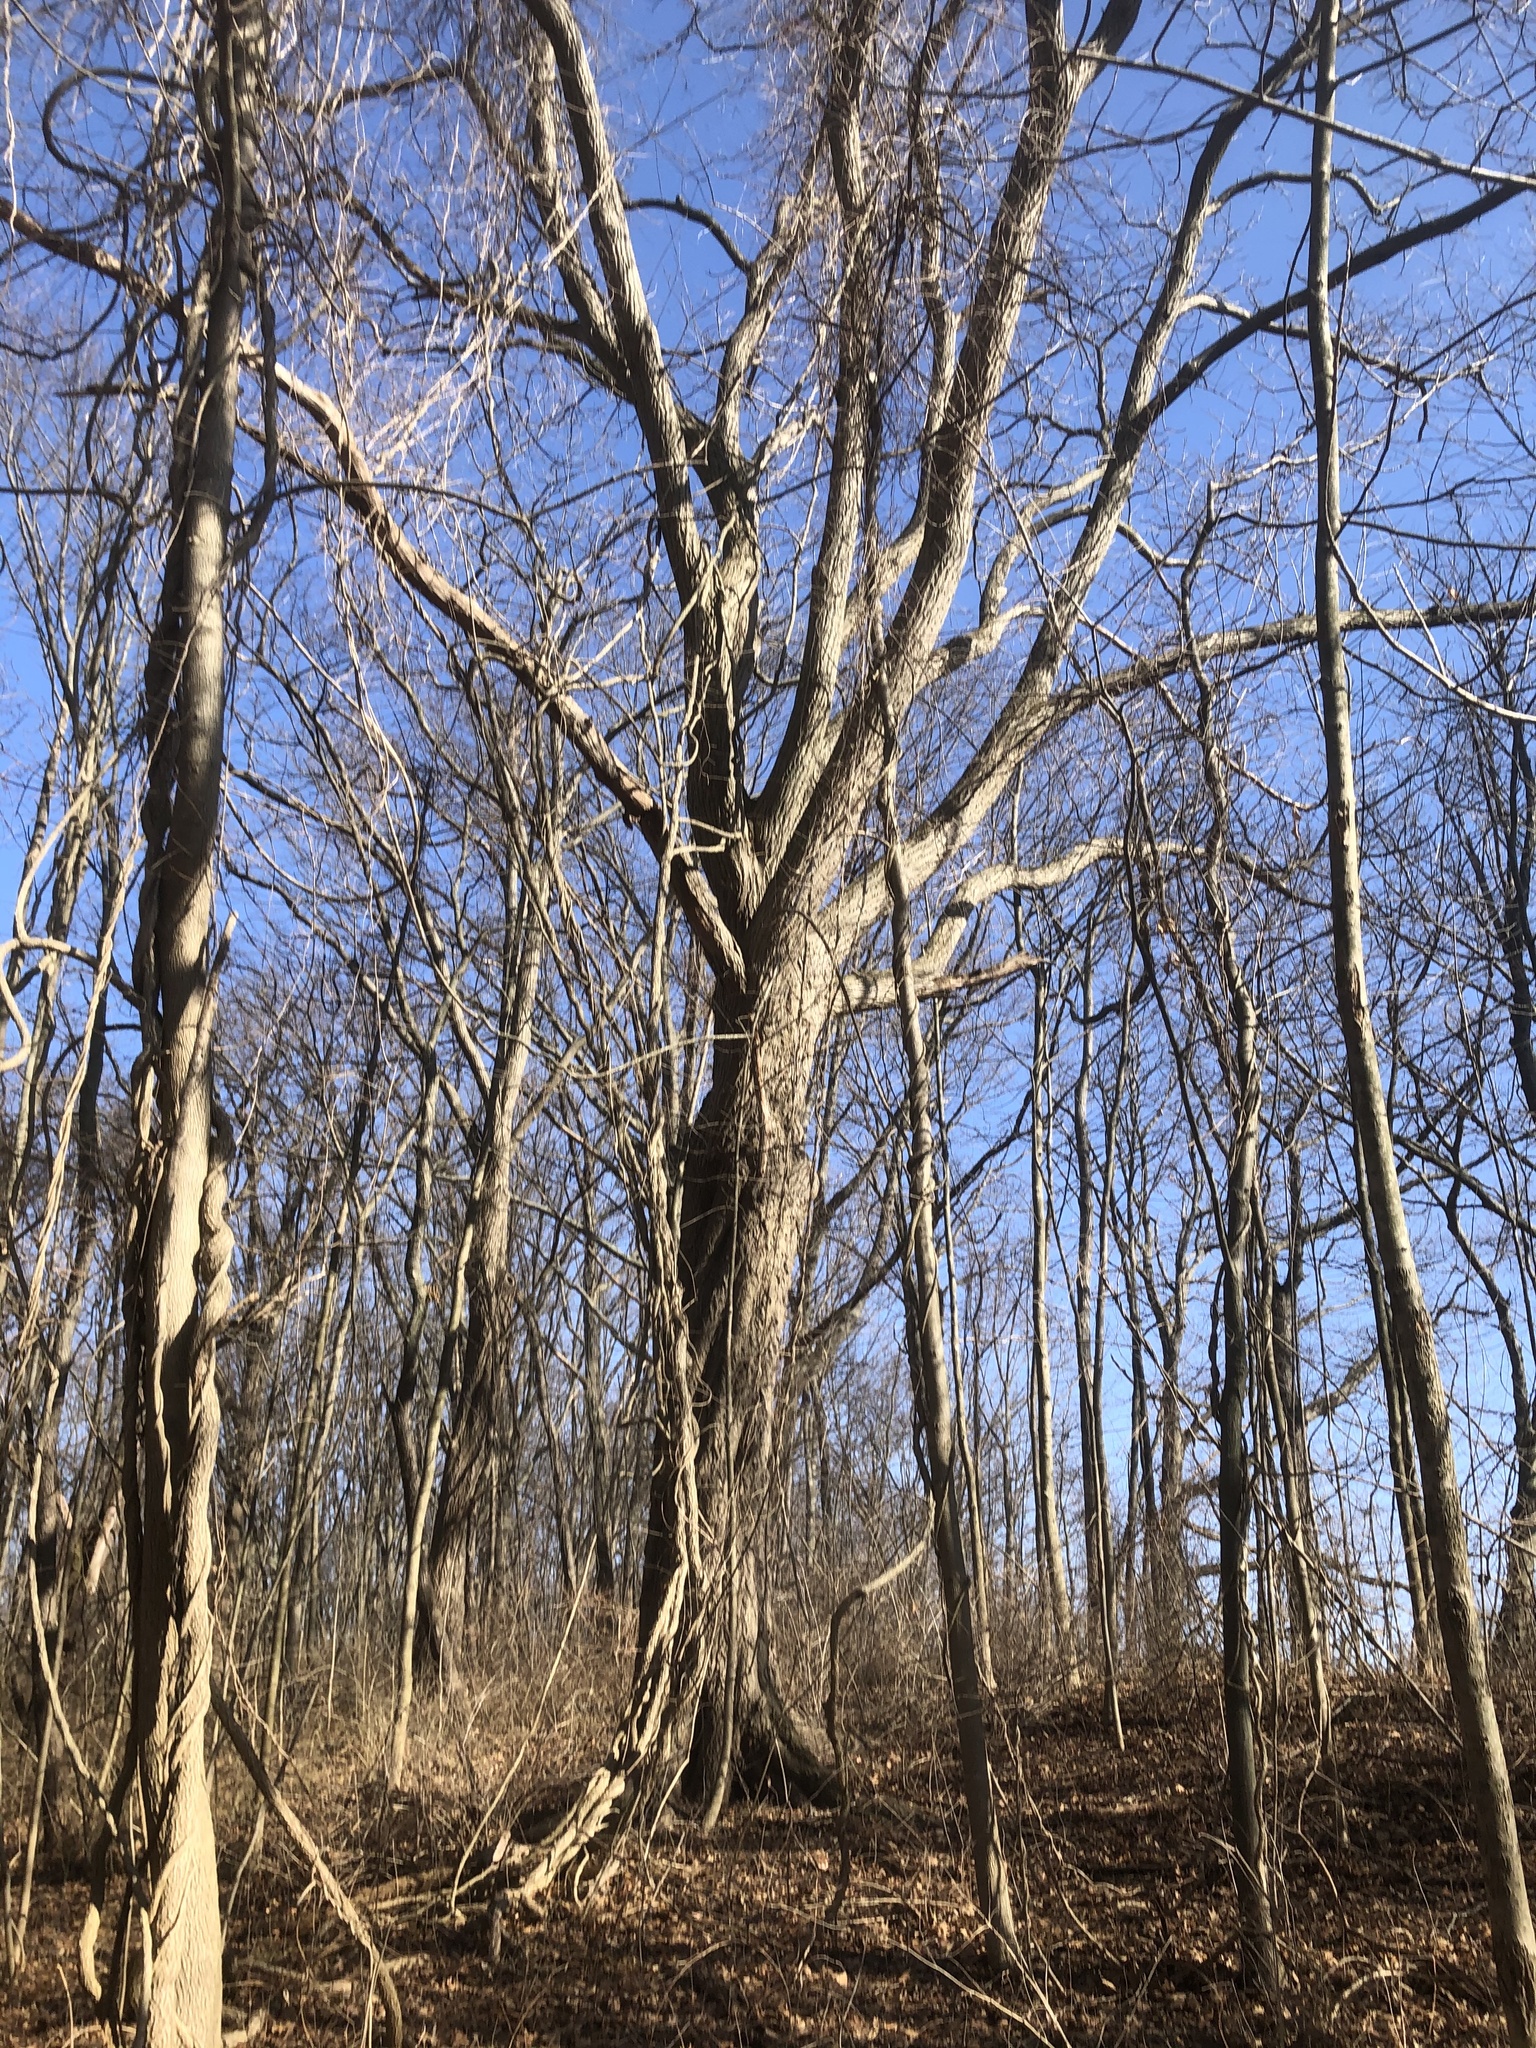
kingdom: Plantae
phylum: Tracheophyta
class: Magnoliopsida
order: Fagales
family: Juglandaceae
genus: Juglans
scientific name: Juglans cinerea
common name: Butternut
